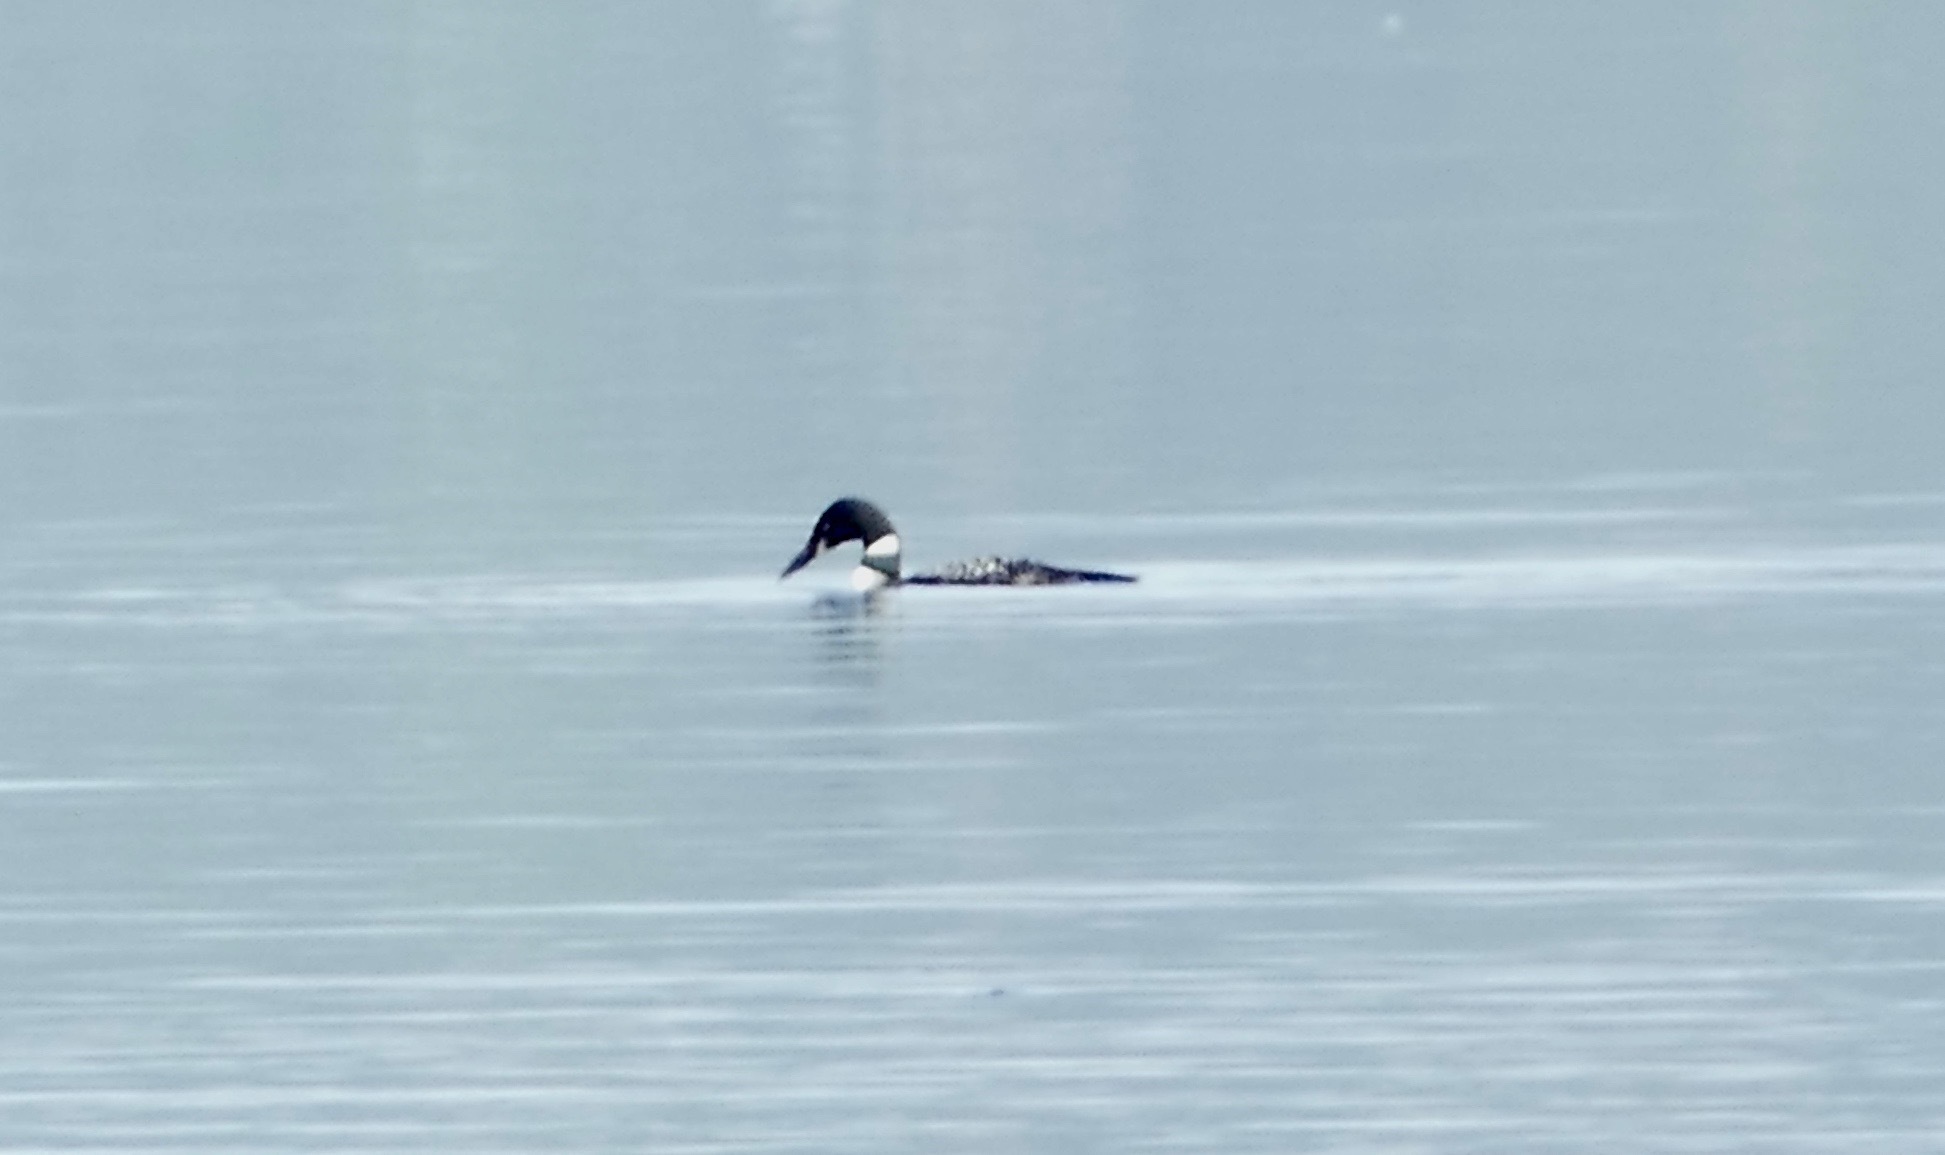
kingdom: Animalia
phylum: Chordata
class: Aves
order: Gaviiformes
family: Gaviidae
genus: Gavia
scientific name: Gavia immer
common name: Common loon
